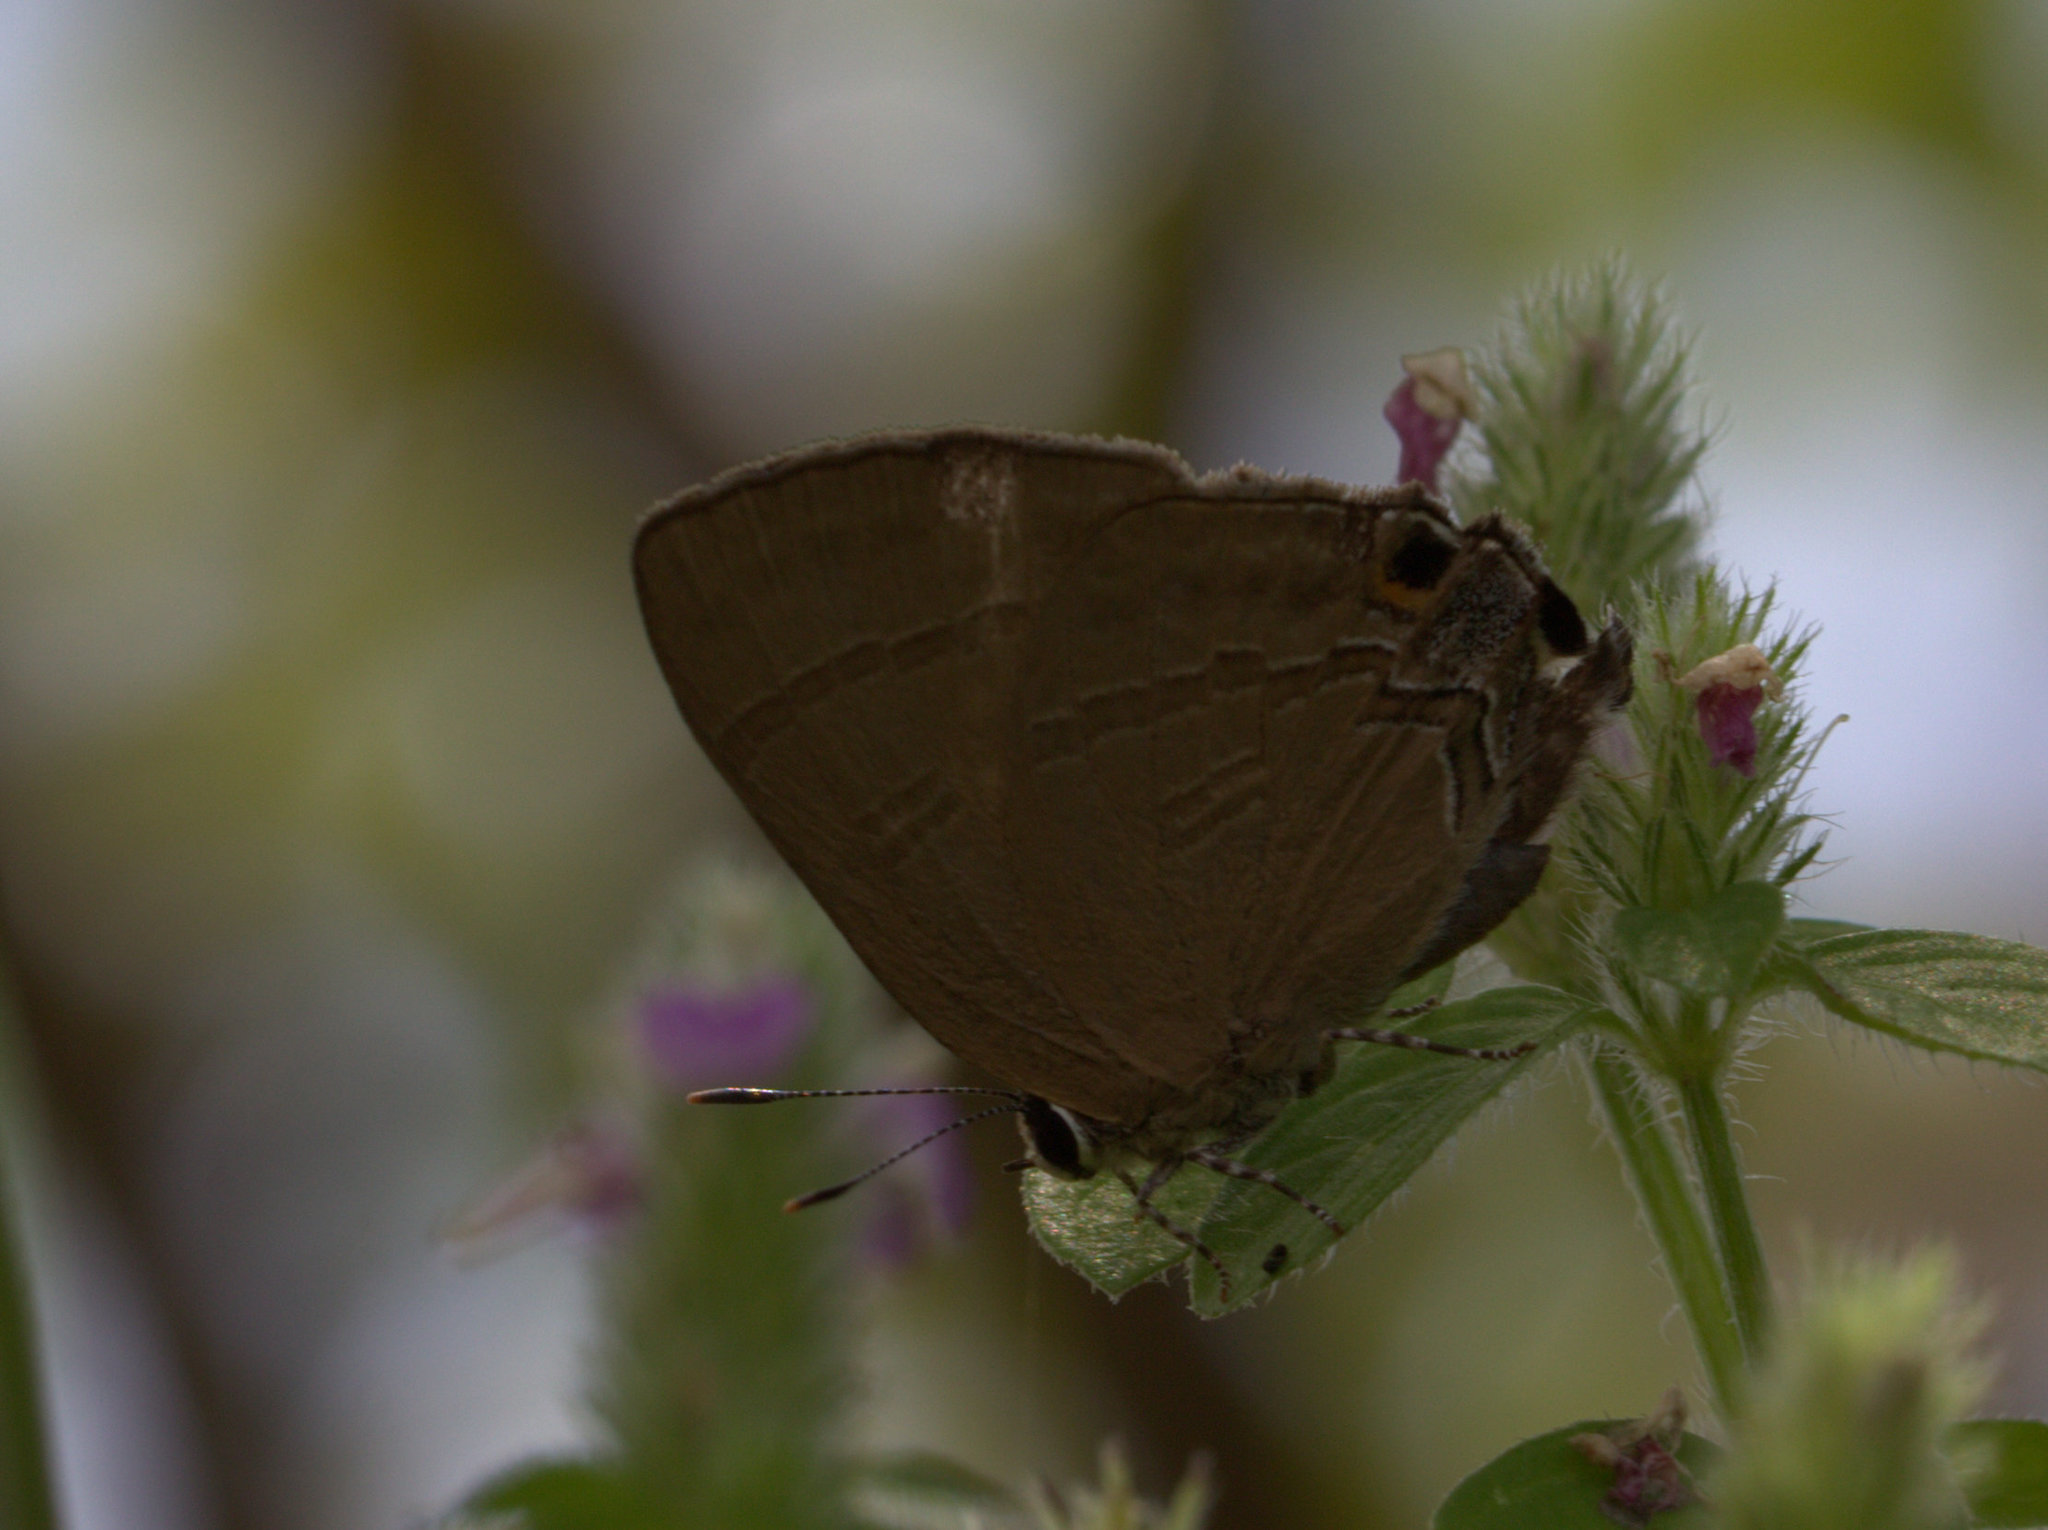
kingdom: Animalia
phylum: Arthropoda
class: Insecta
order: Lepidoptera
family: Lycaenidae
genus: Rapala
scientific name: Rapala manea
